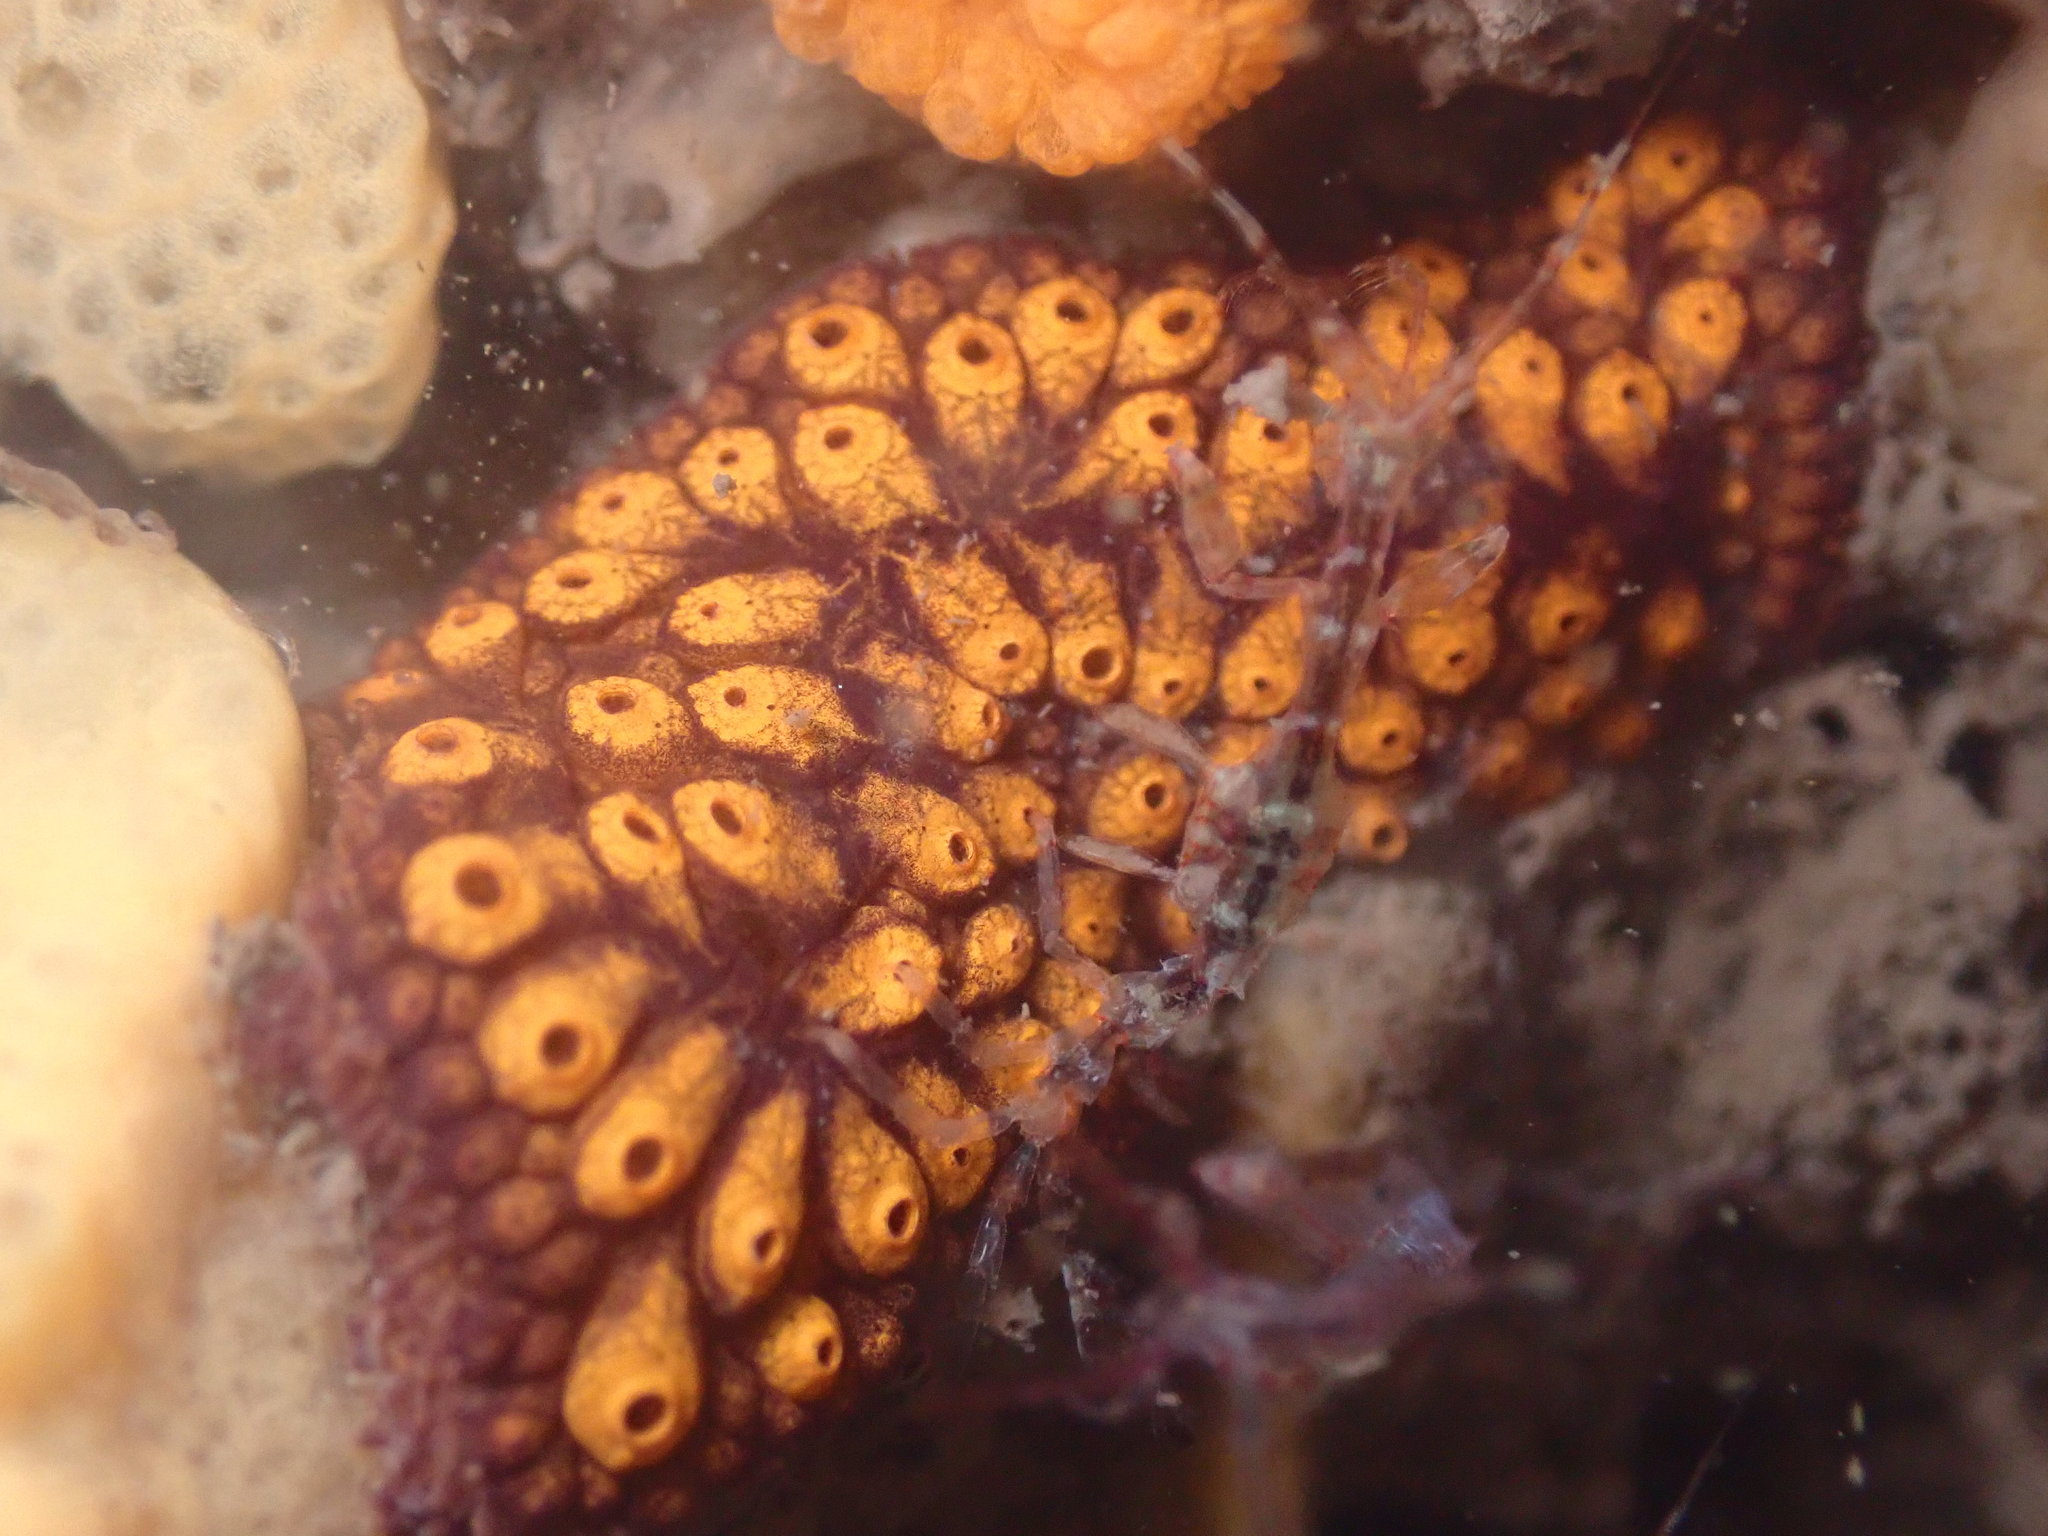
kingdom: Animalia
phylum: Chordata
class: Ascidiacea
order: Stolidobranchia
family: Styelidae
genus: Botrylloides
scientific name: Botrylloides diegensis
